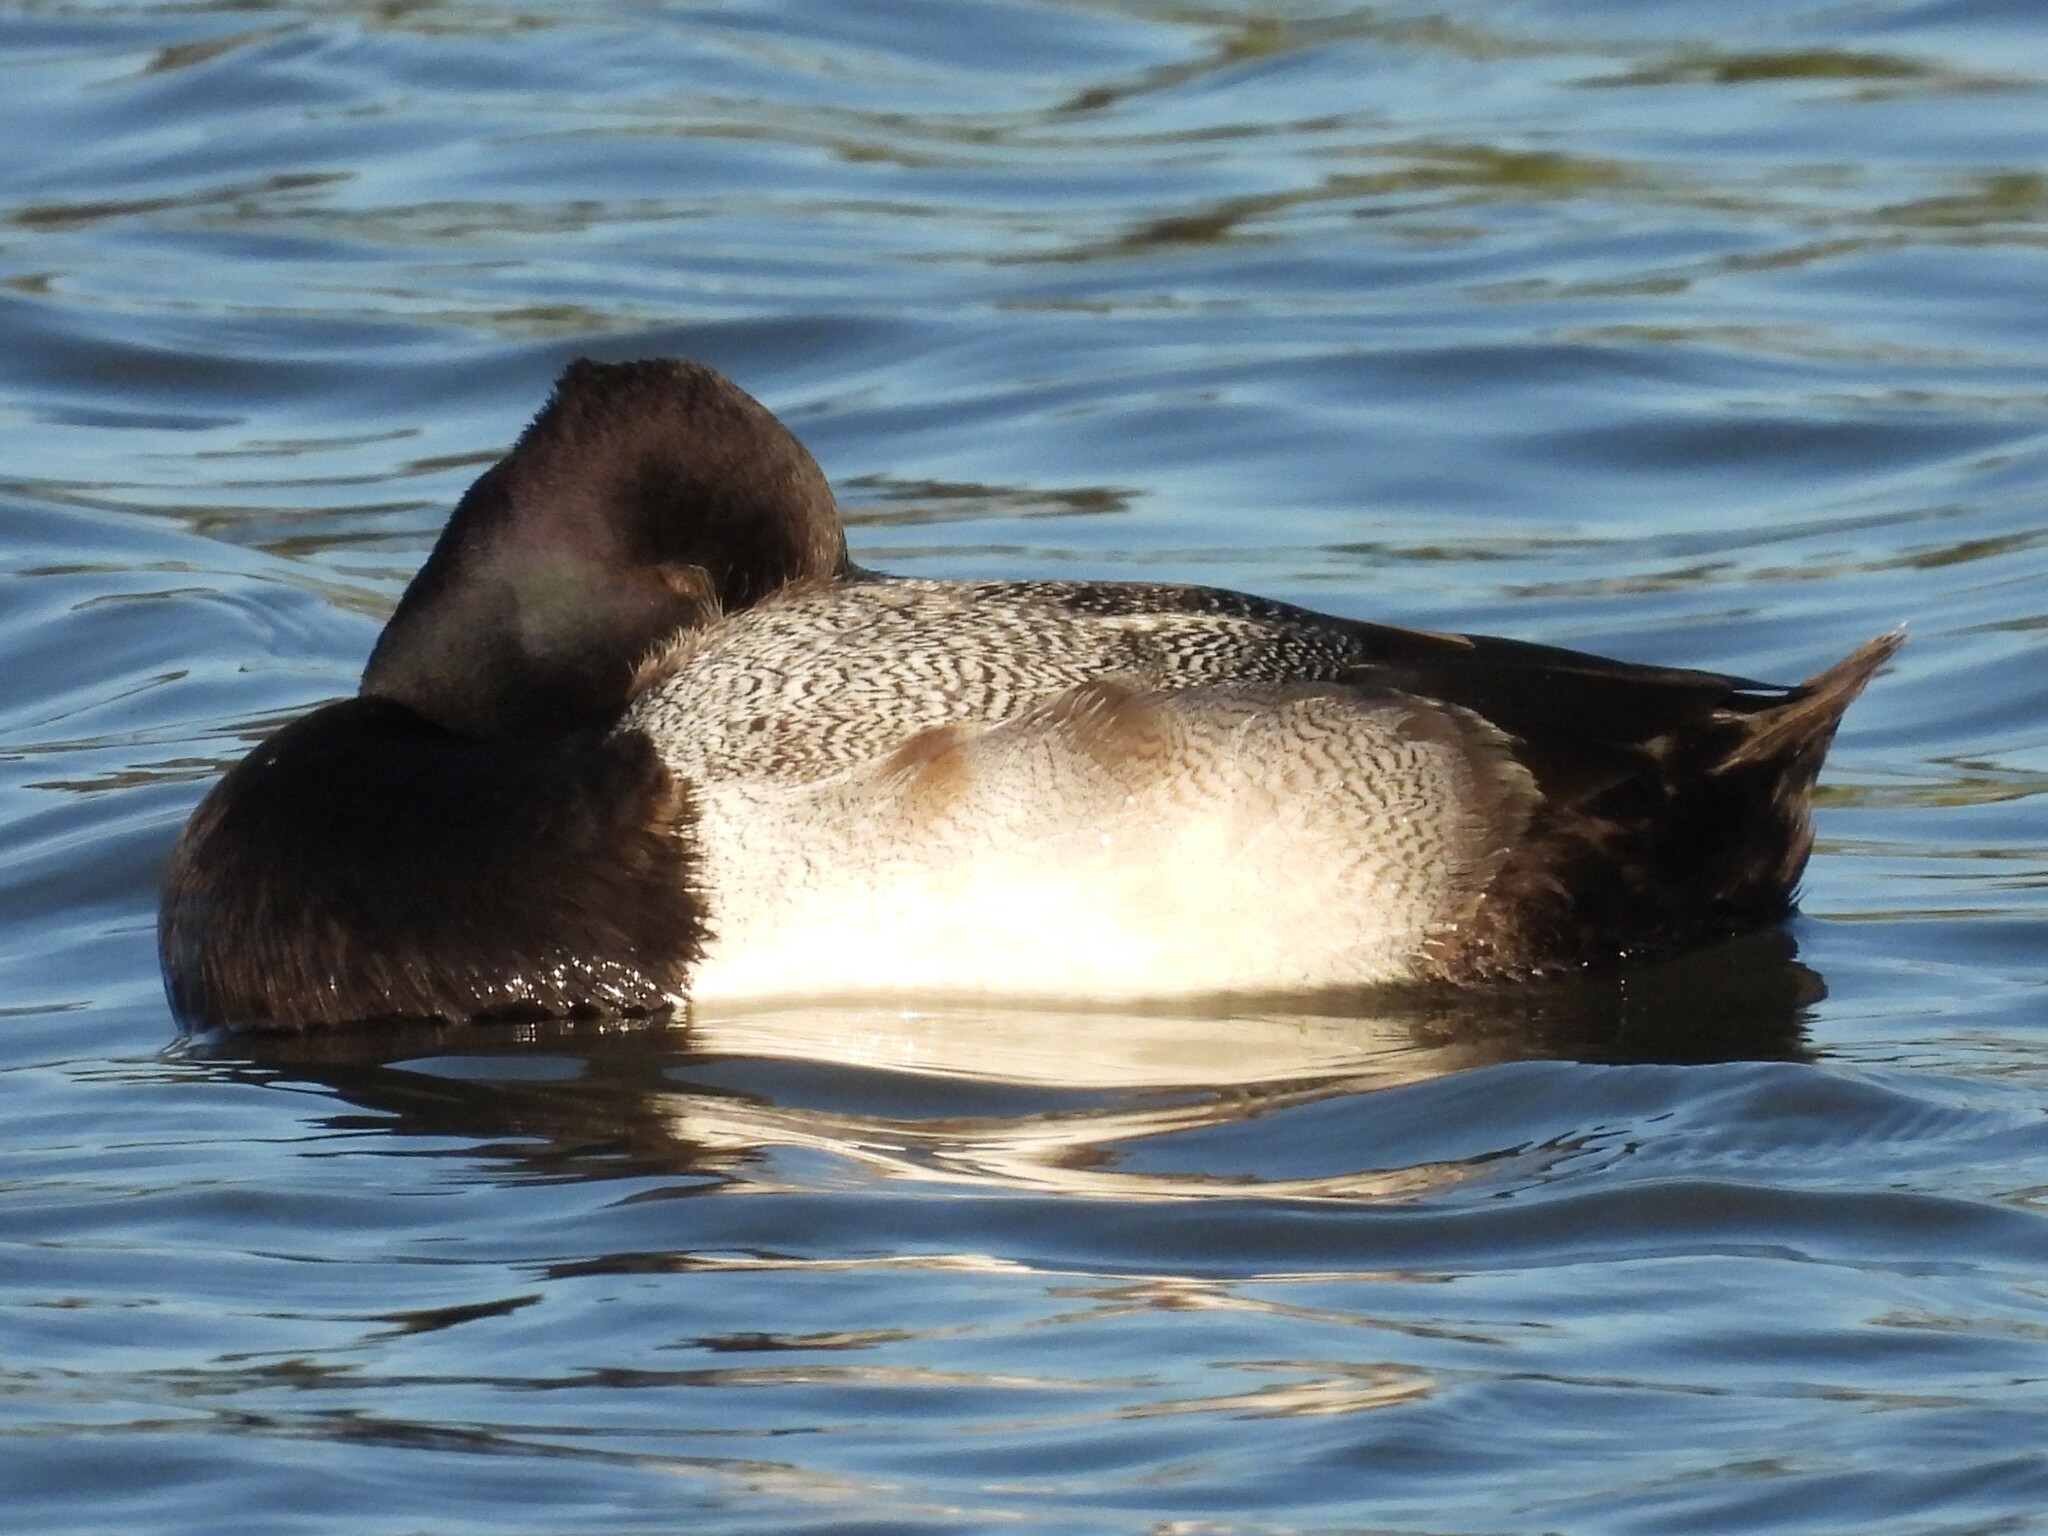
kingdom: Animalia
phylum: Chordata
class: Aves
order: Anseriformes
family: Anatidae
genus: Aythya
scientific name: Aythya affinis
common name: Lesser scaup
